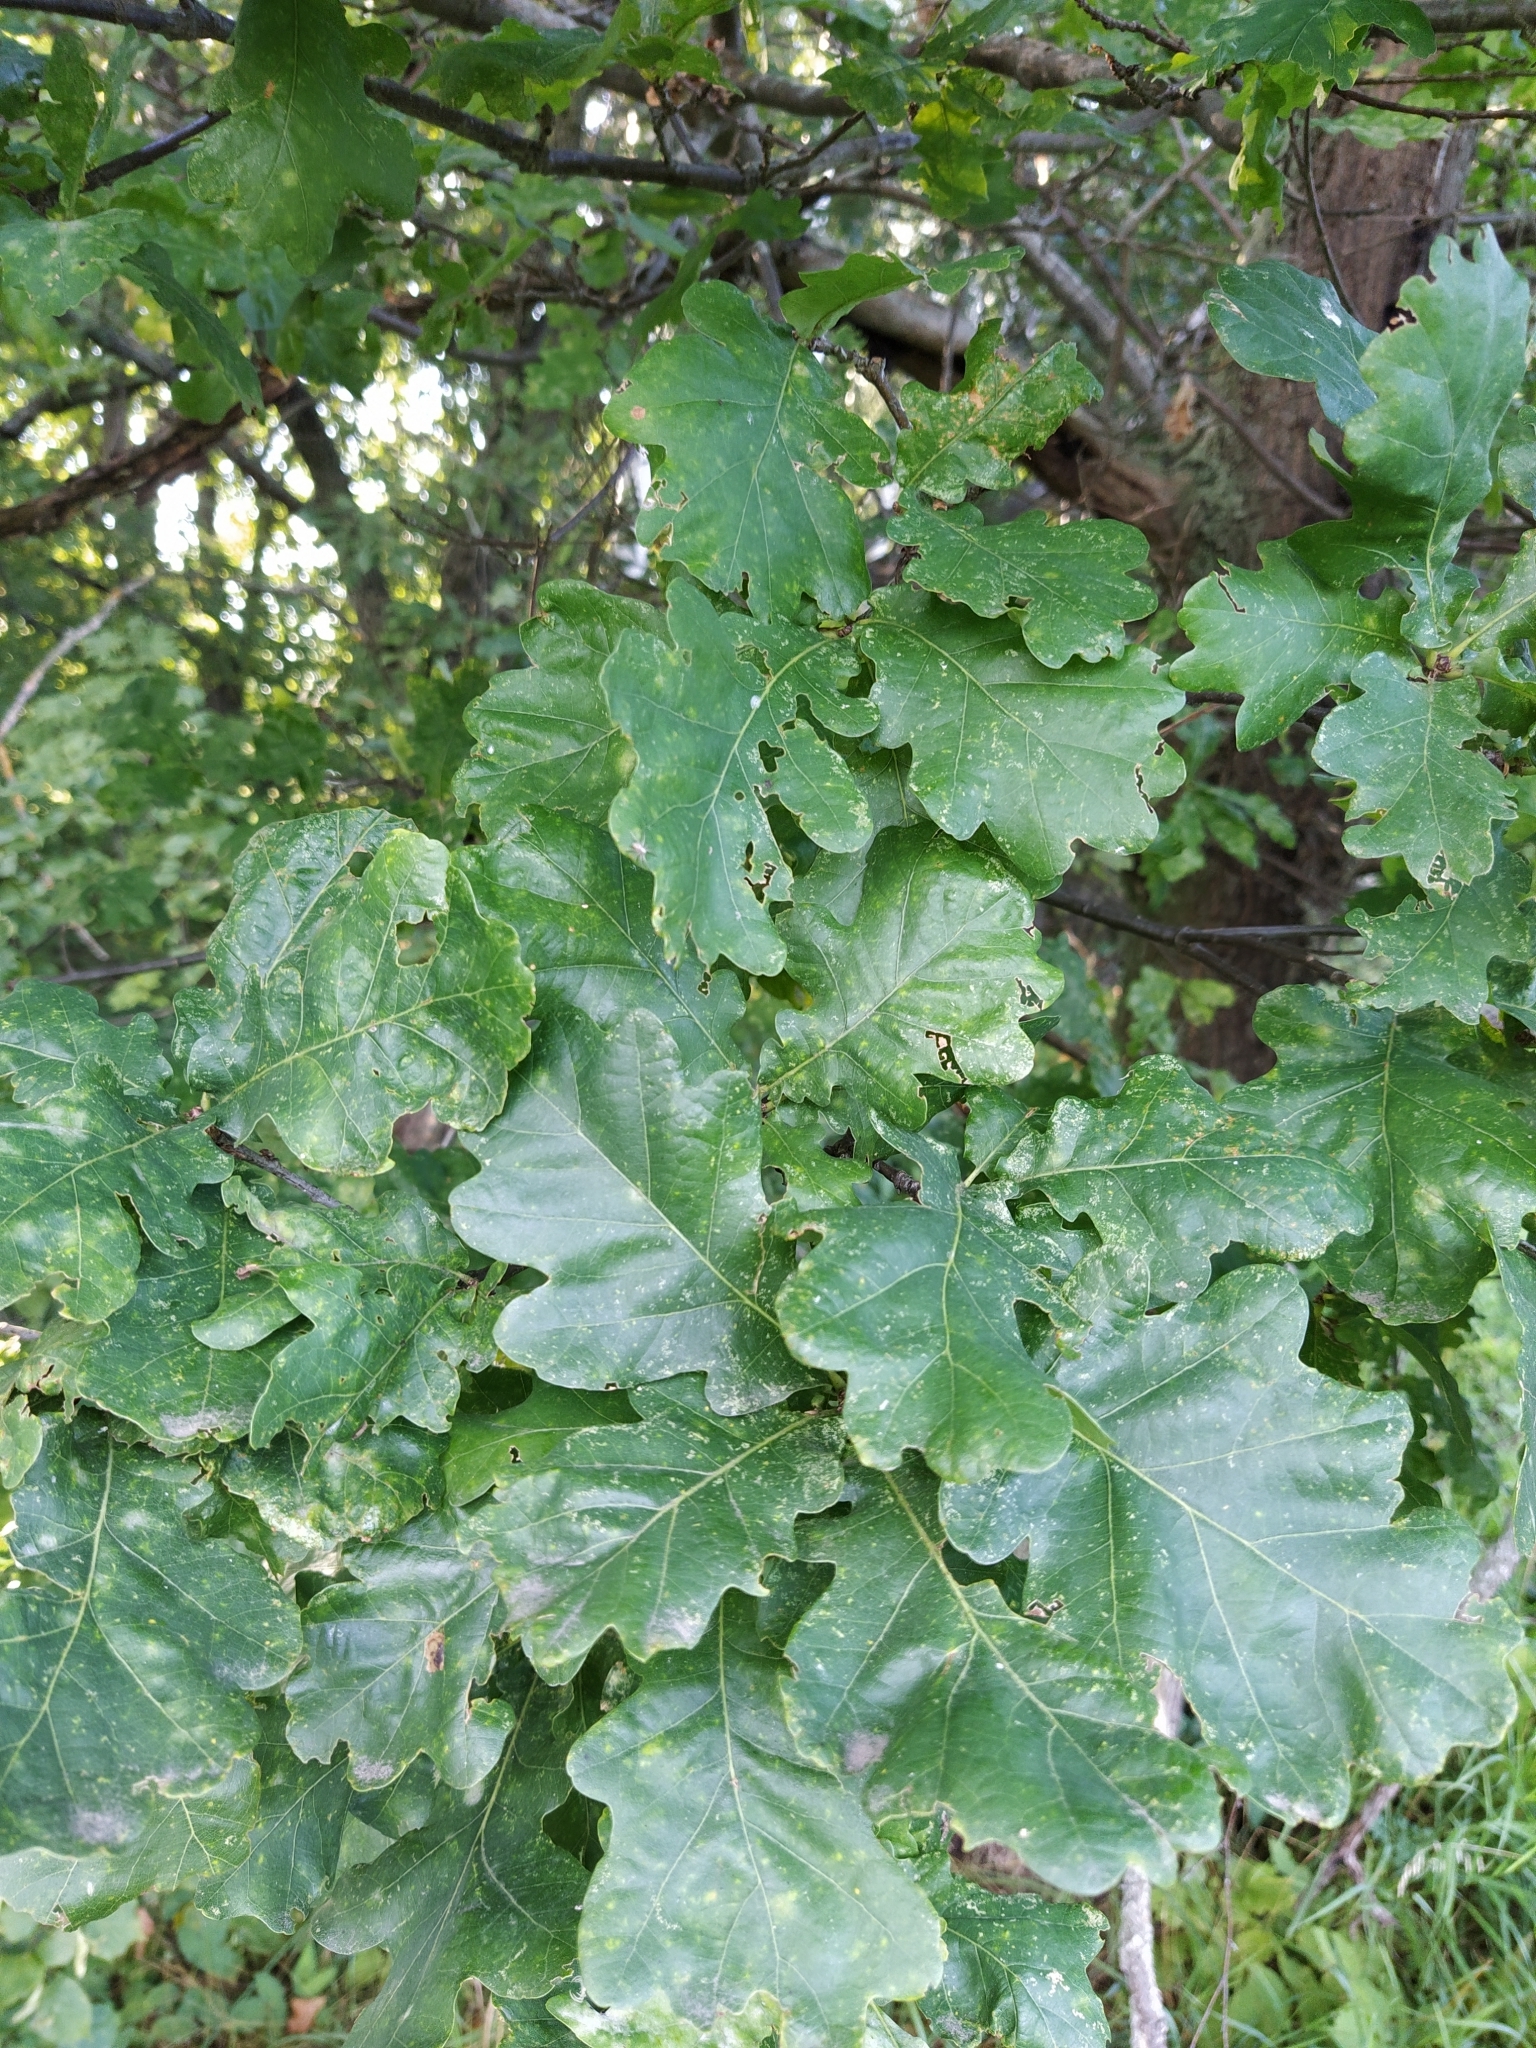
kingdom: Plantae
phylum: Tracheophyta
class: Magnoliopsida
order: Fagales
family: Fagaceae
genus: Quercus
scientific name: Quercus robur
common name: Pedunculate oak
